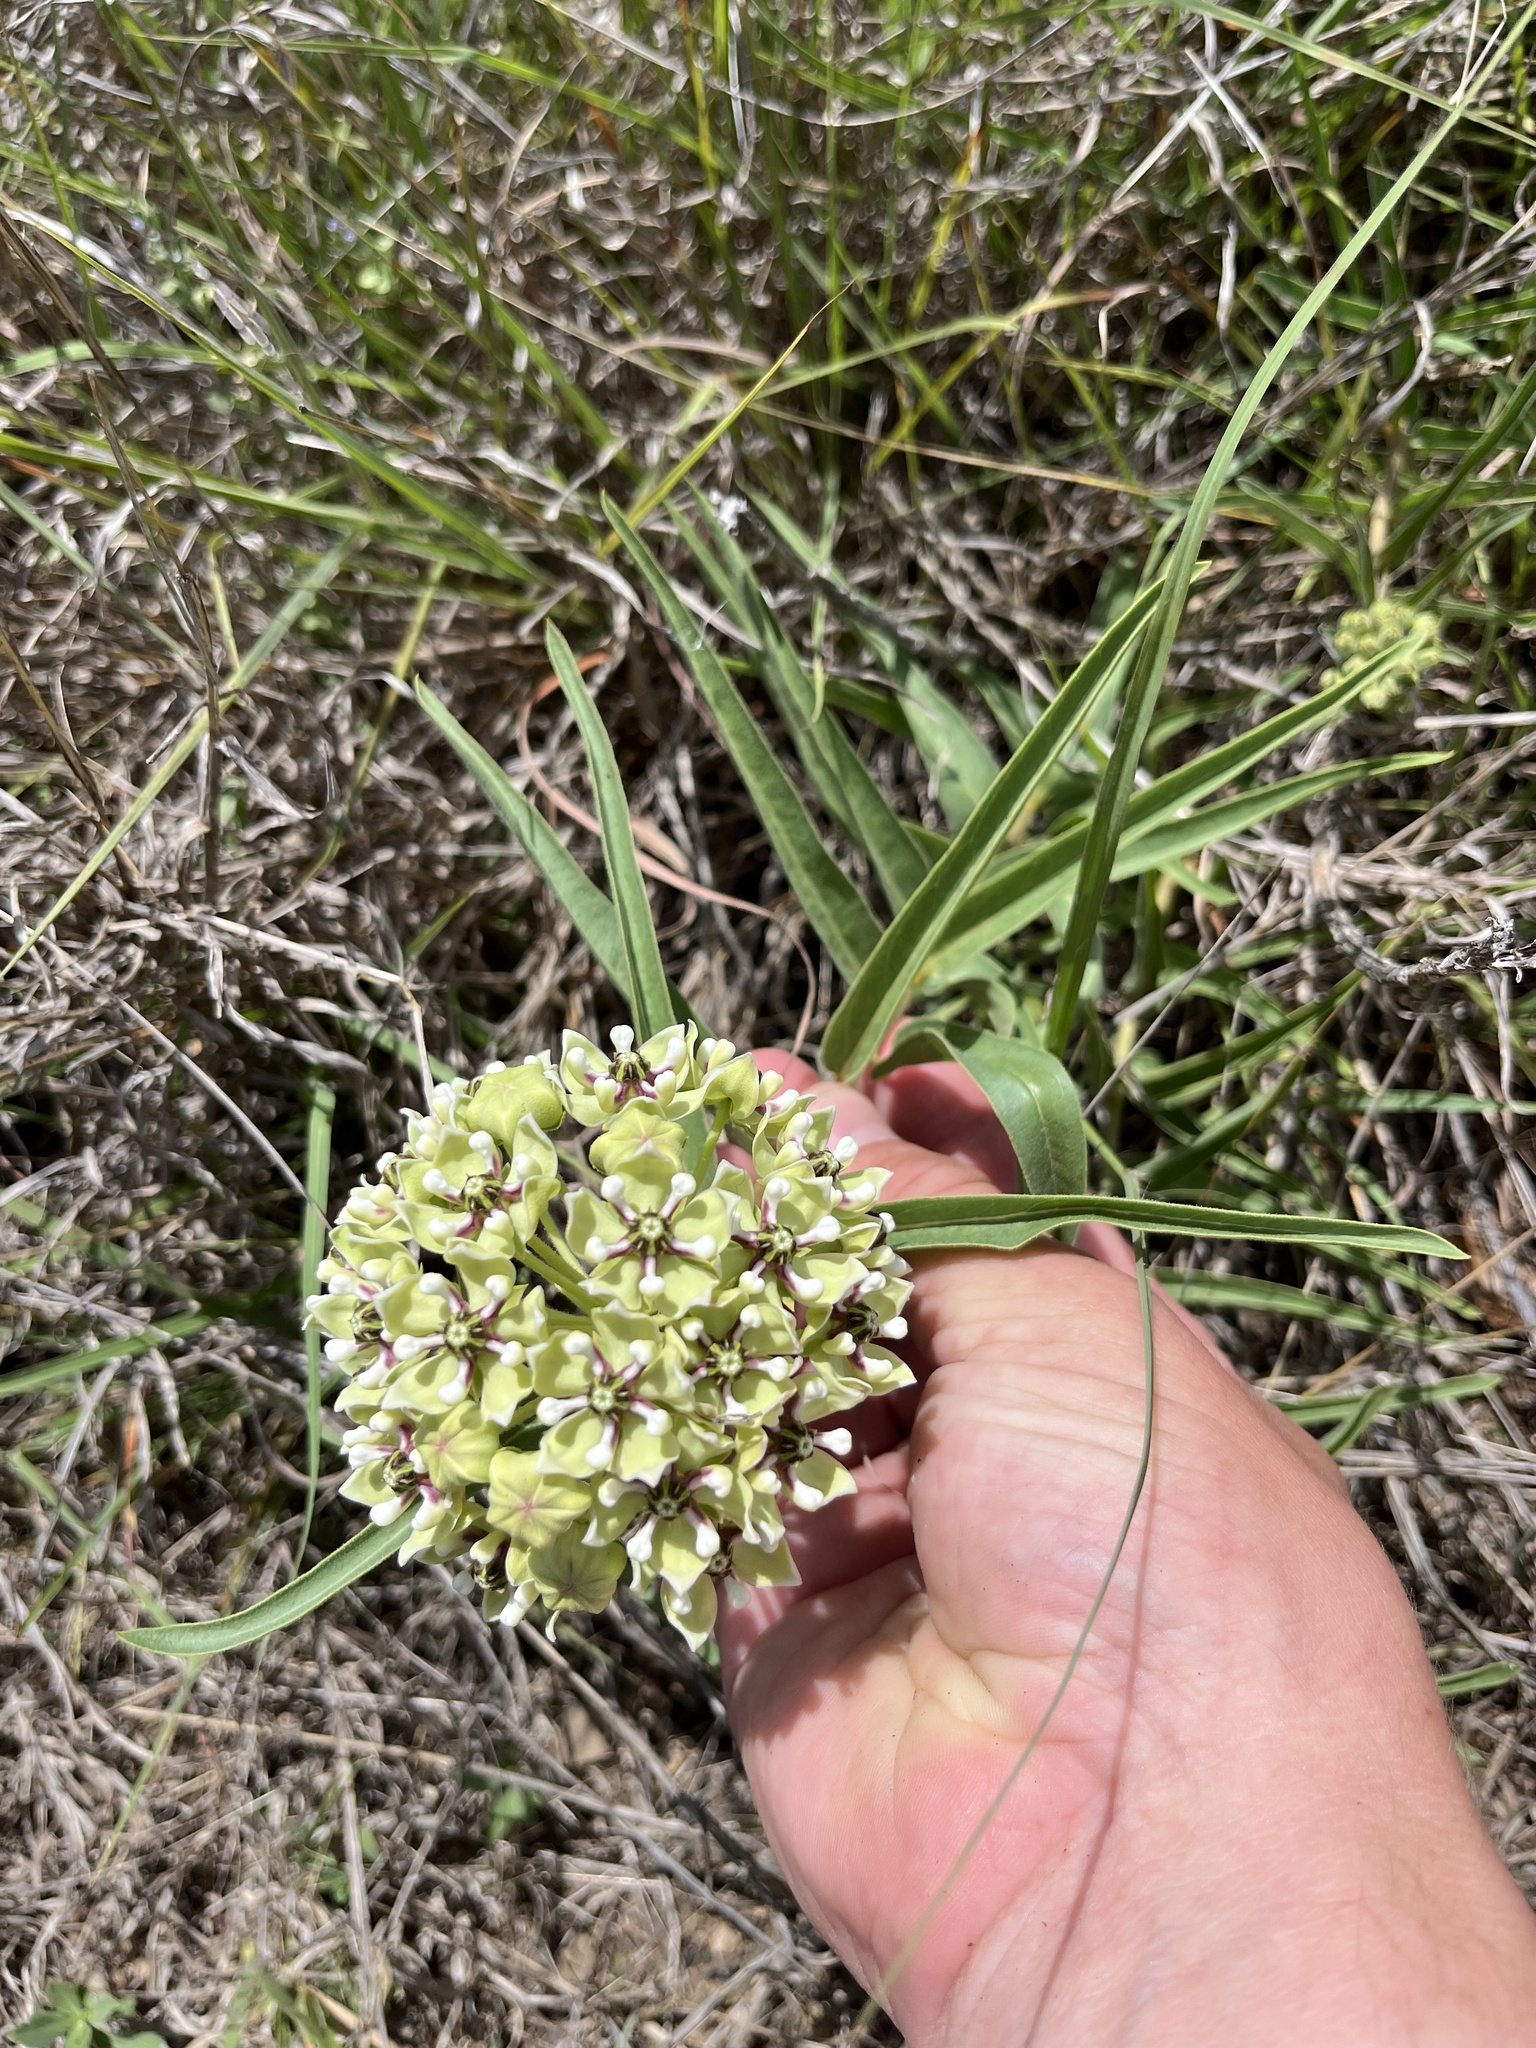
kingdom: Plantae
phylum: Tracheophyta
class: Magnoliopsida
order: Gentianales
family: Apocynaceae
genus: Asclepias
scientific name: Asclepias asperula
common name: Antelope horns
